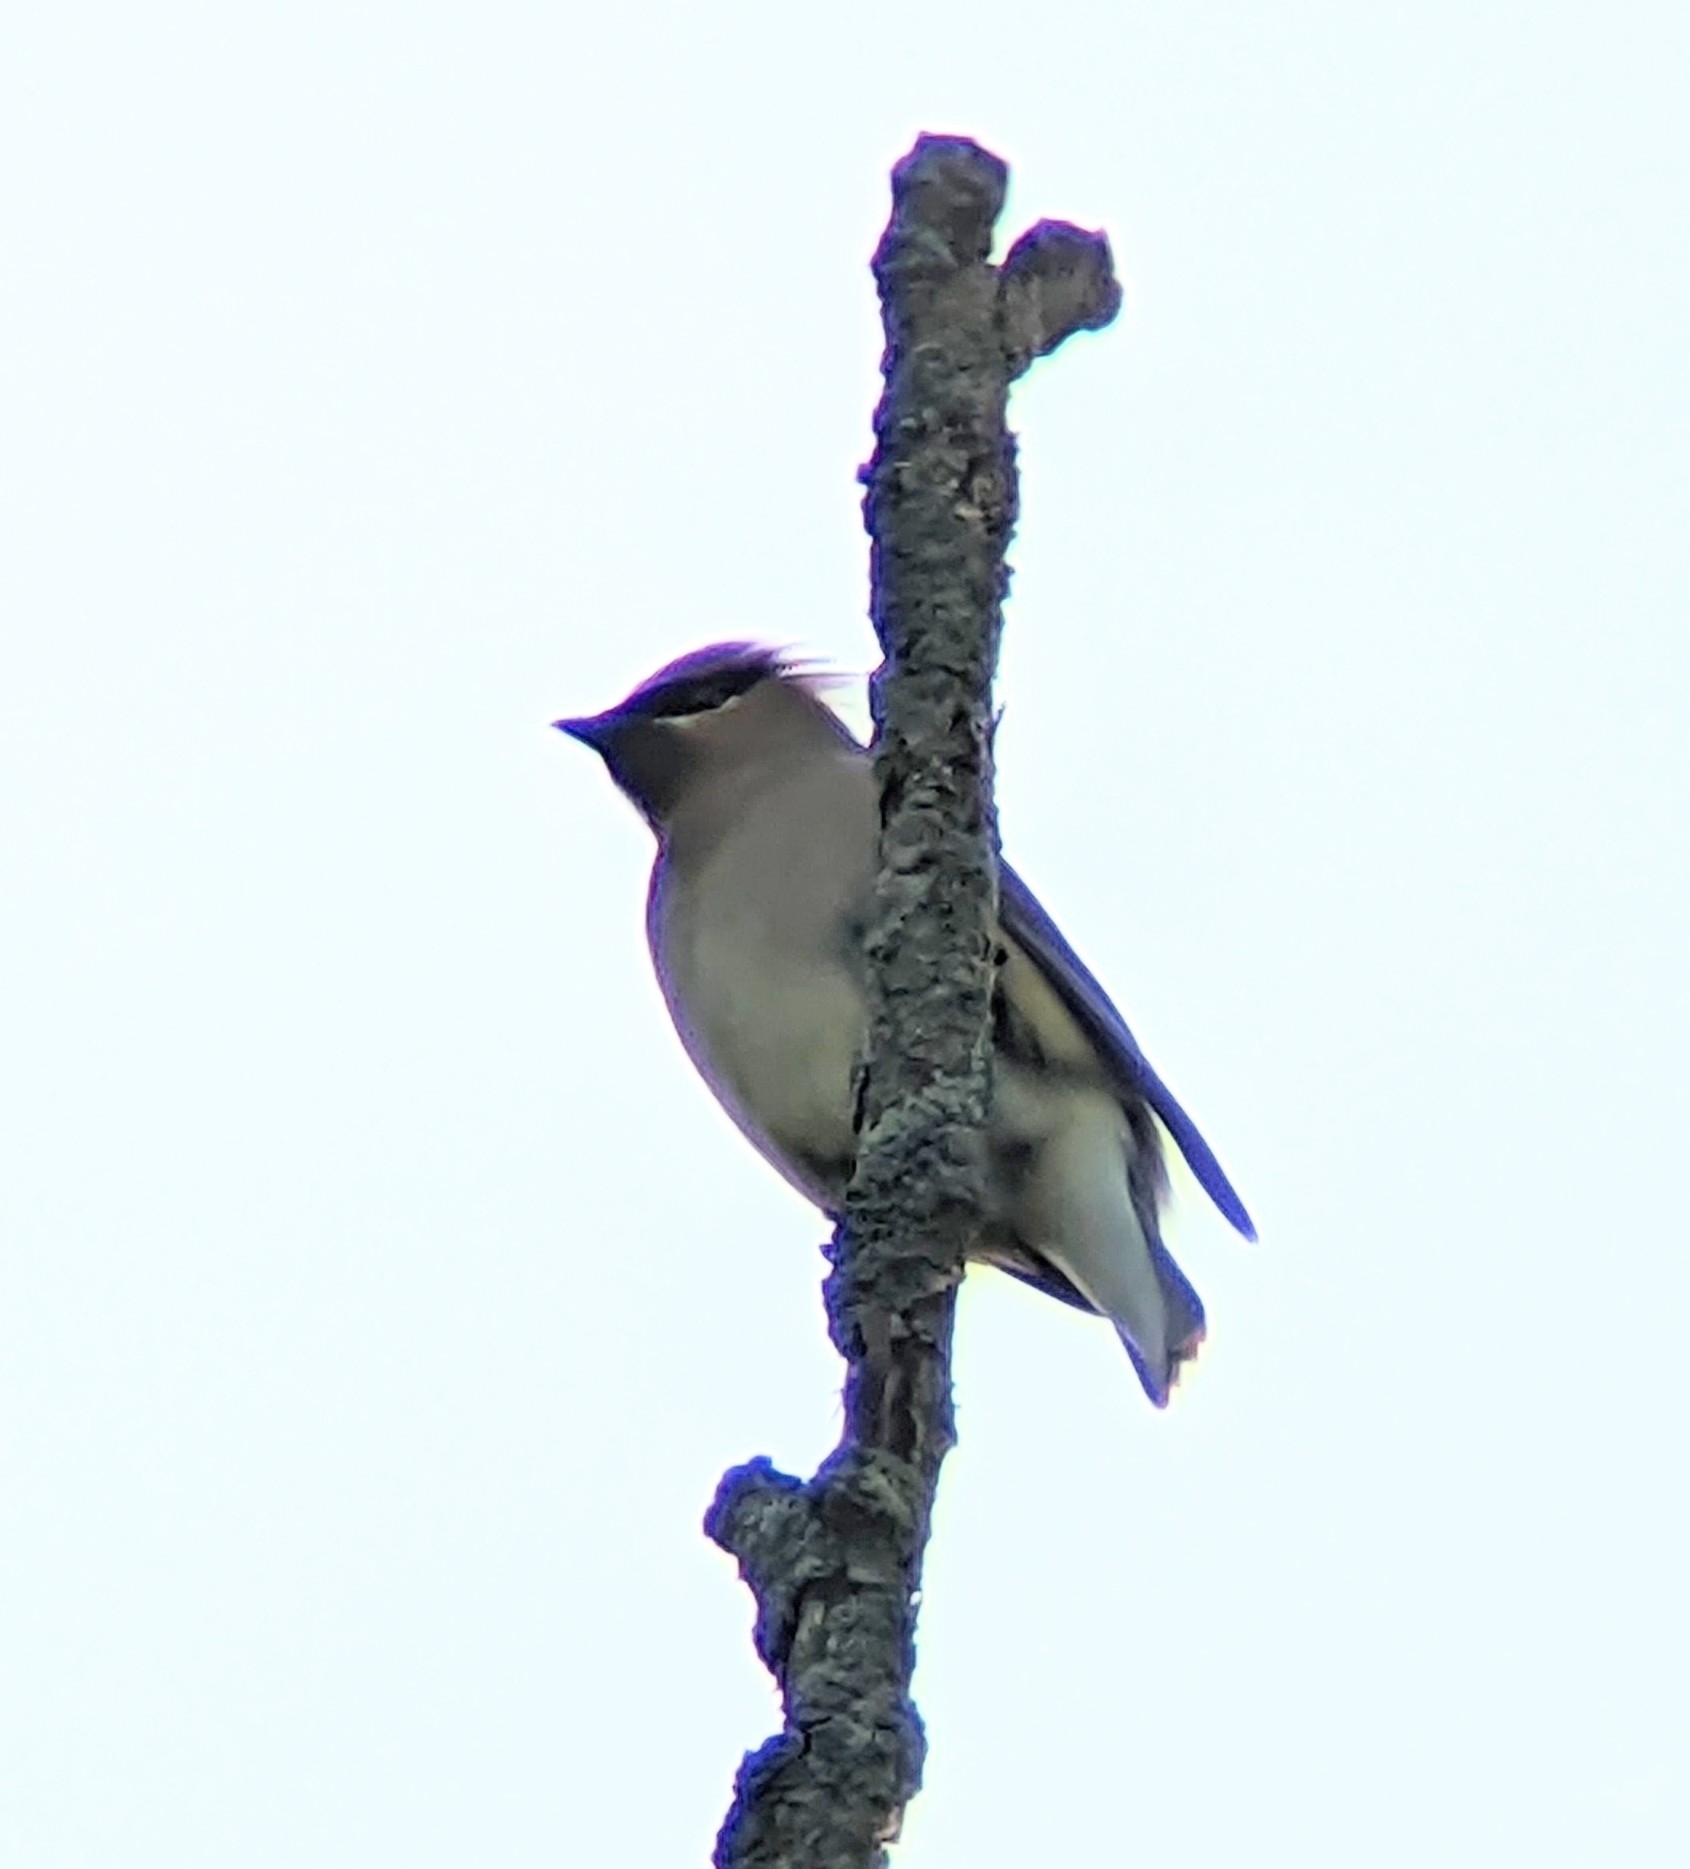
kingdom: Animalia
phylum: Chordata
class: Aves
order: Passeriformes
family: Bombycillidae
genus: Bombycilla
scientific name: Bombycilla cedrorum
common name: Cedar waxwing
